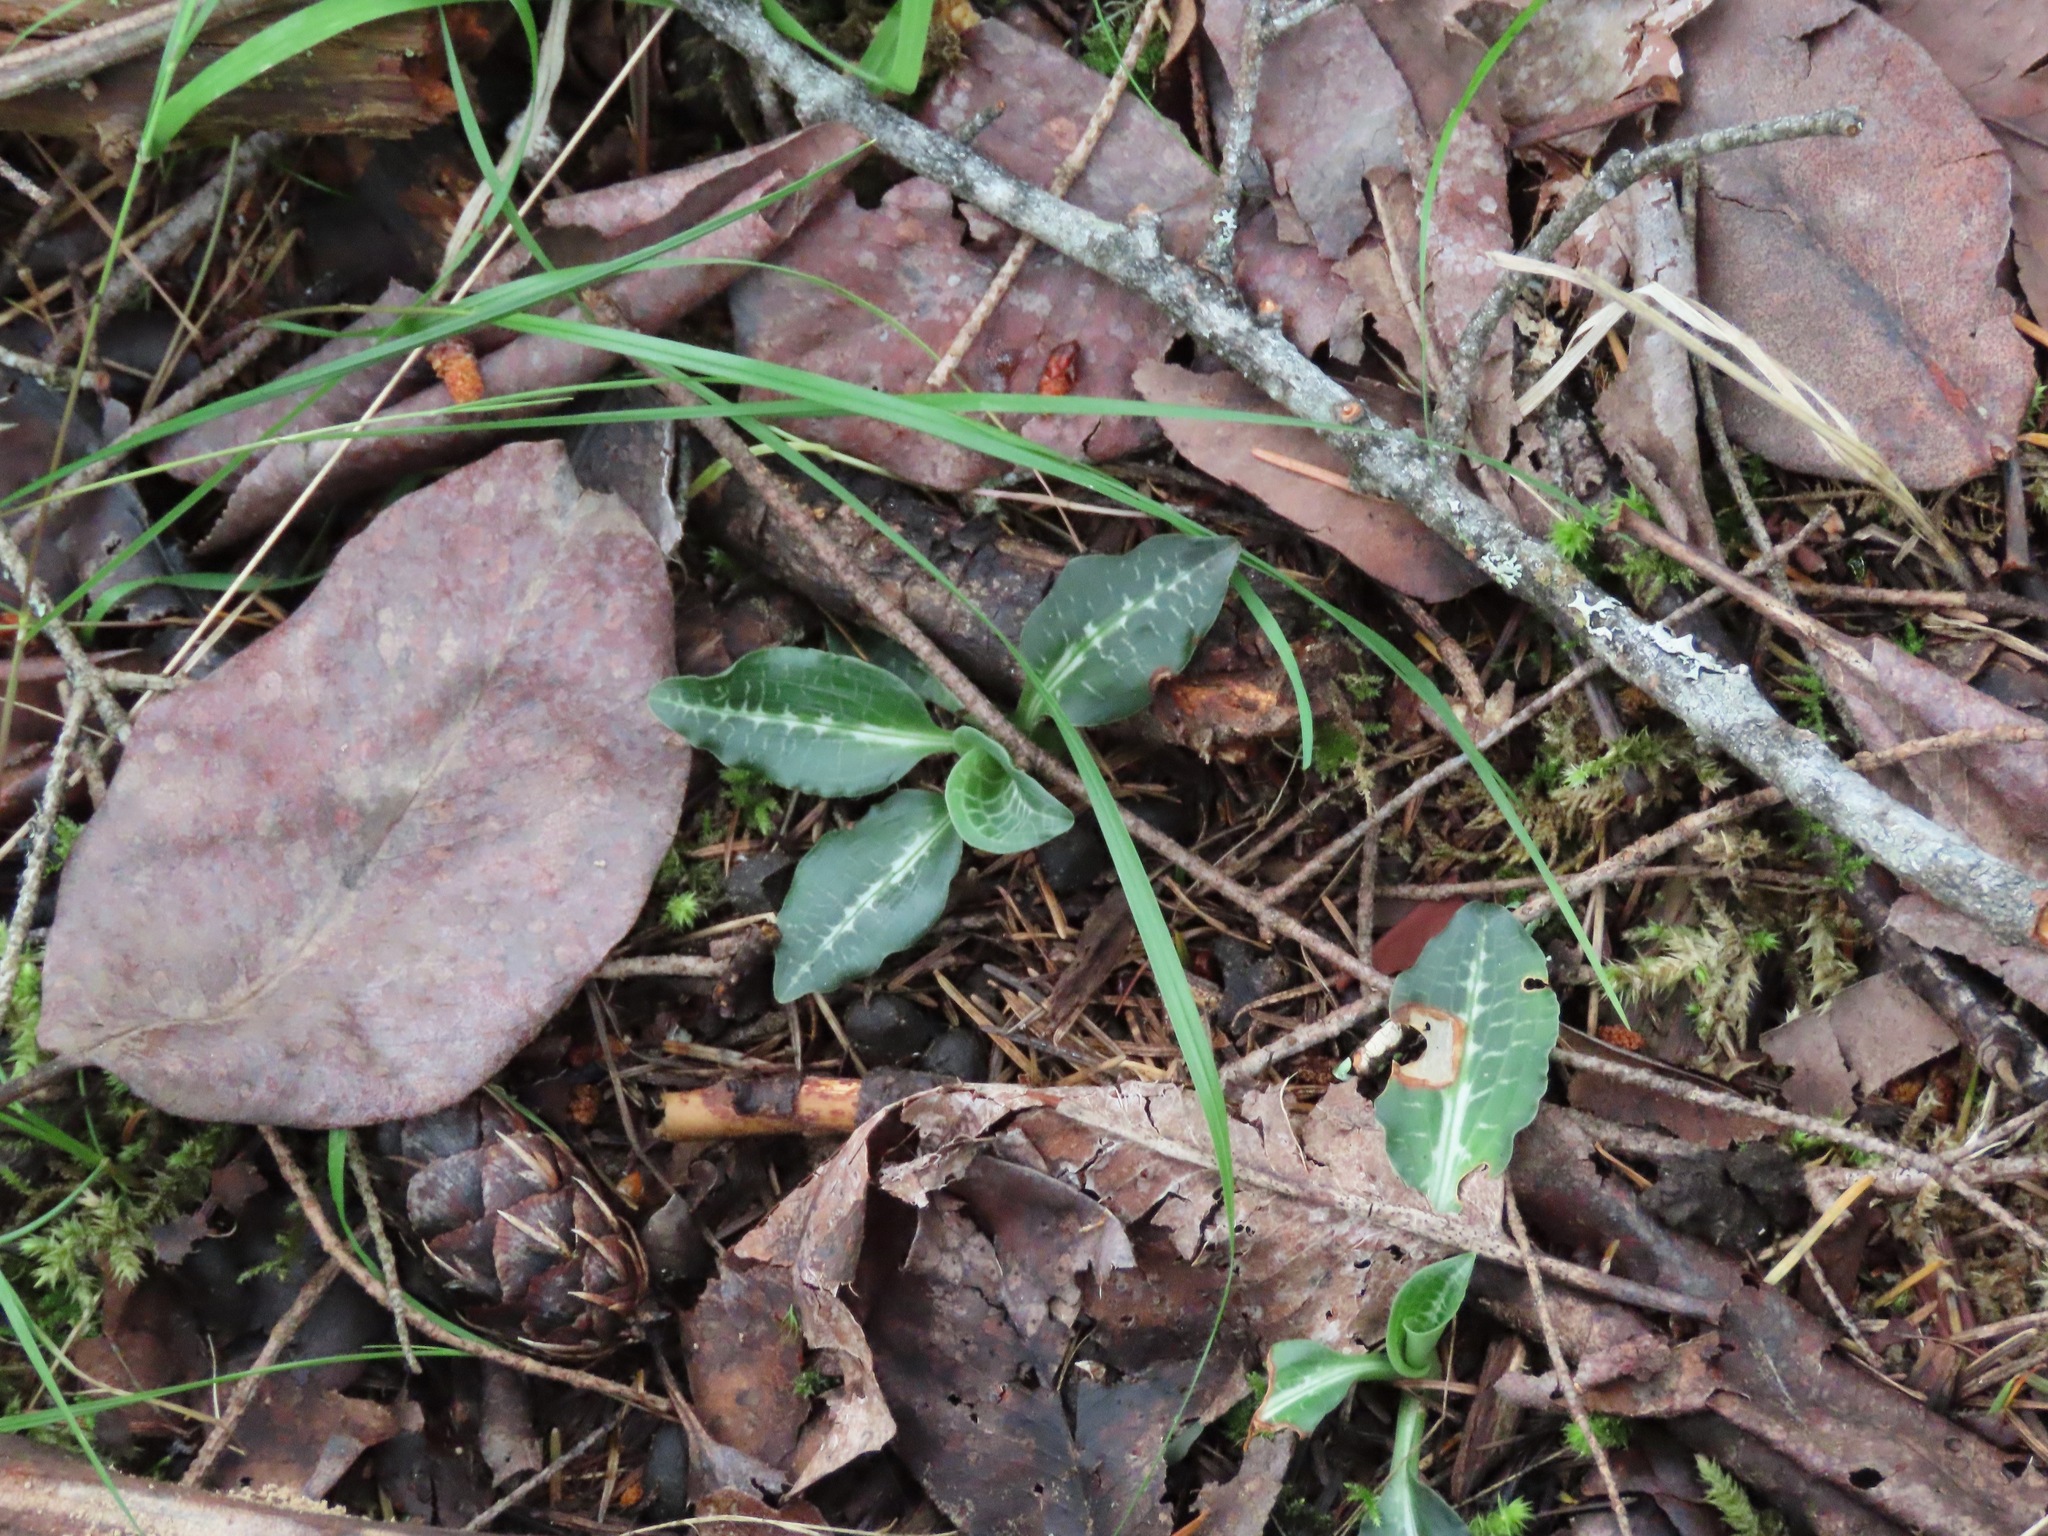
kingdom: Plantae
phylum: Tracheophyta
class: Liliopsida
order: Asparagales
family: Orchidaceae
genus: Goodyera
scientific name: Goodyera oblongifolia
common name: Giant rattlesnake-plantain
